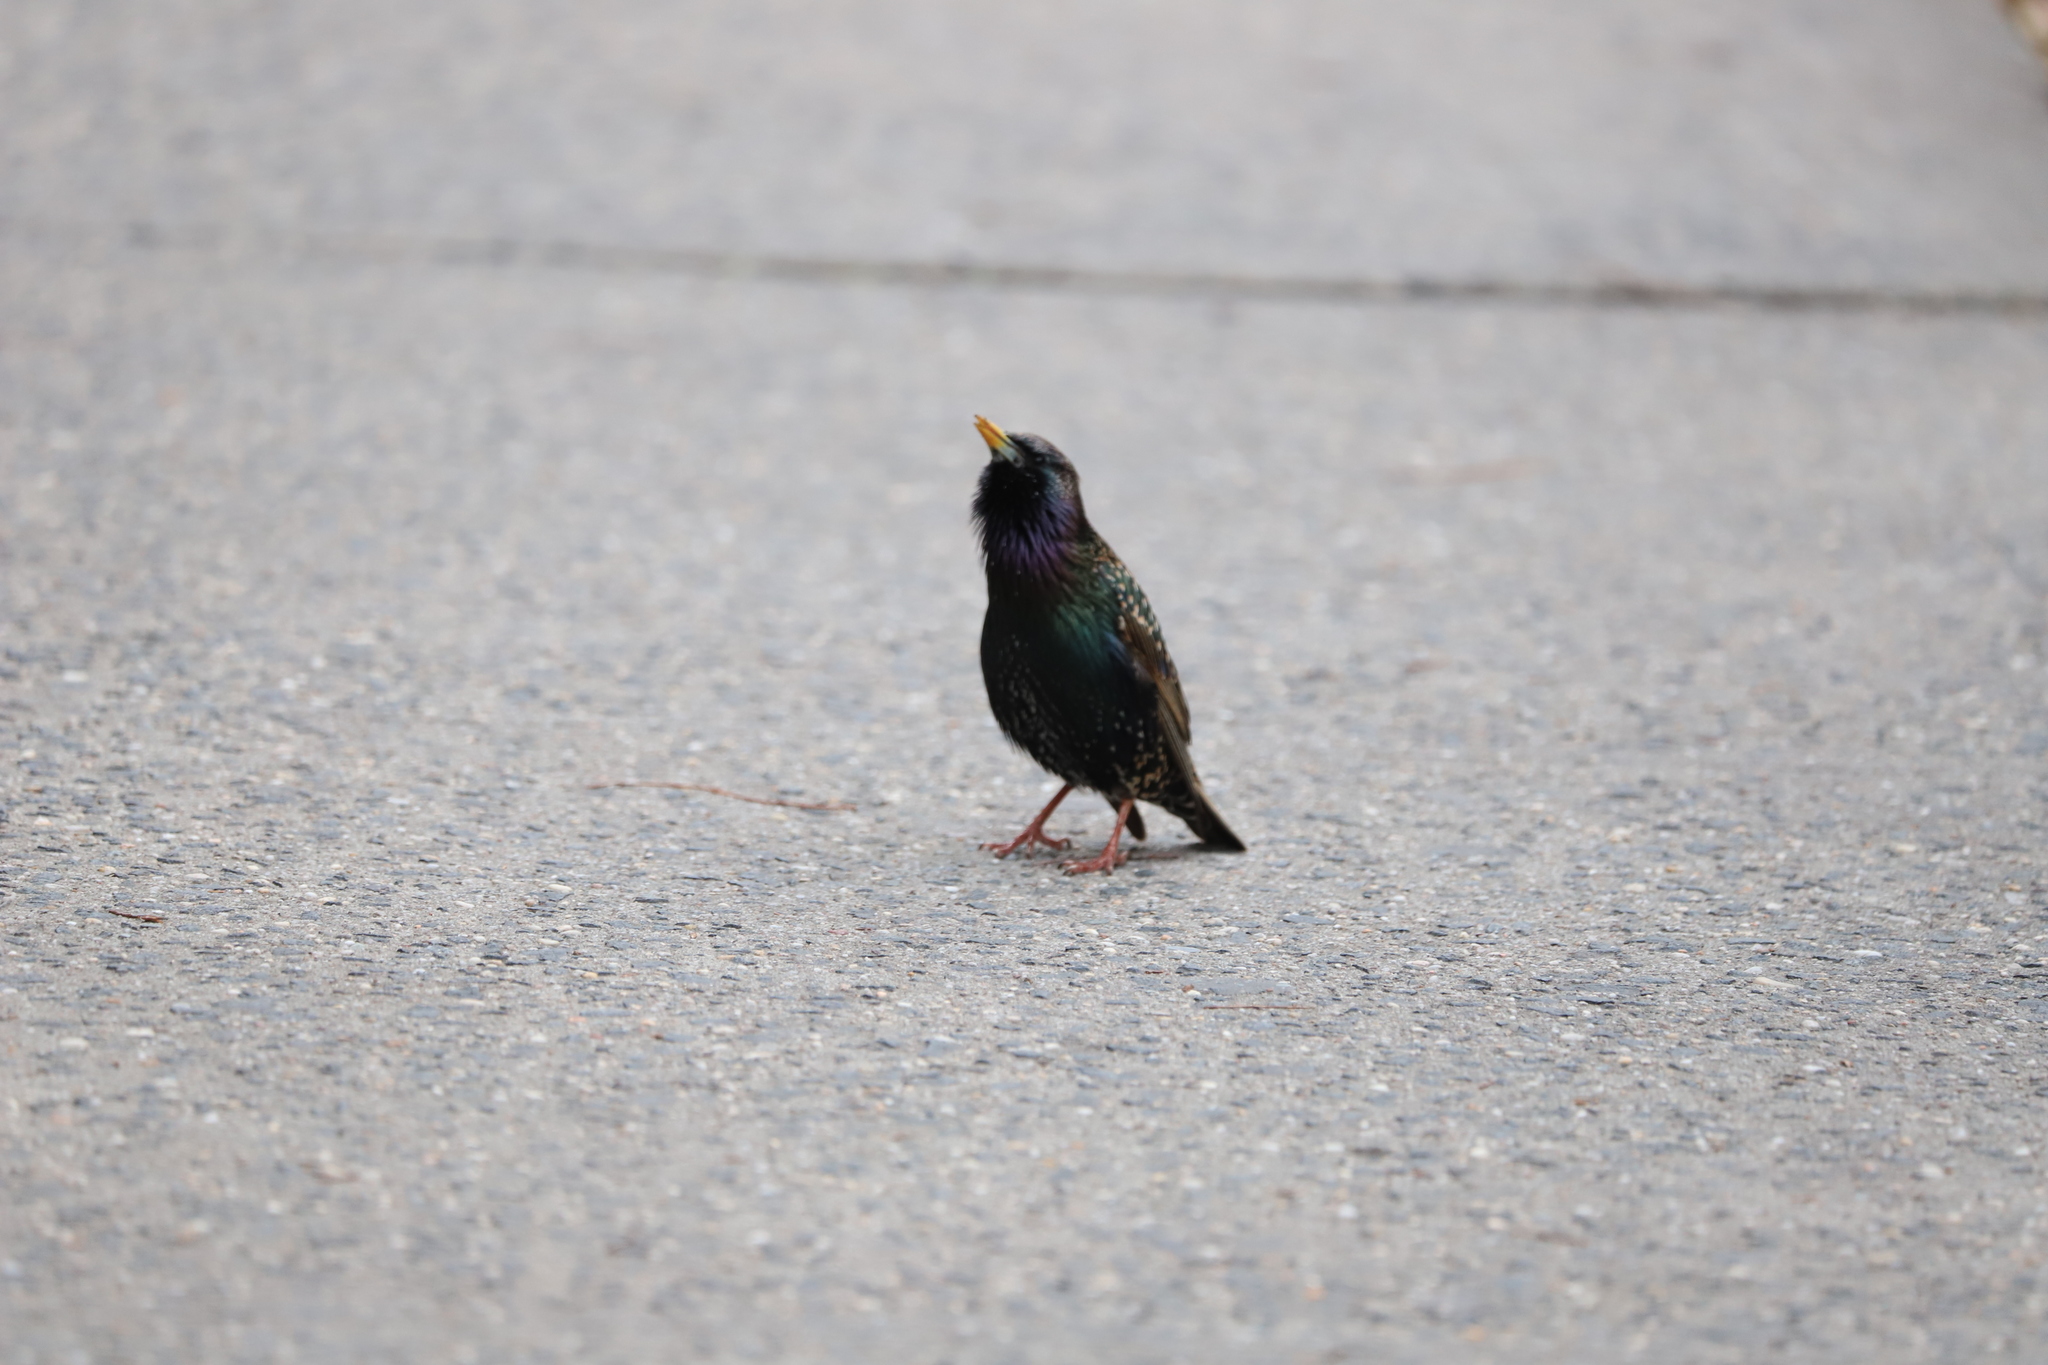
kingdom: Animalia
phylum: Chordata
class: Aves
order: Passeriformes
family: Sturnidae
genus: Sturnus
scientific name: Sturnus vulgaris
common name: Common starling
